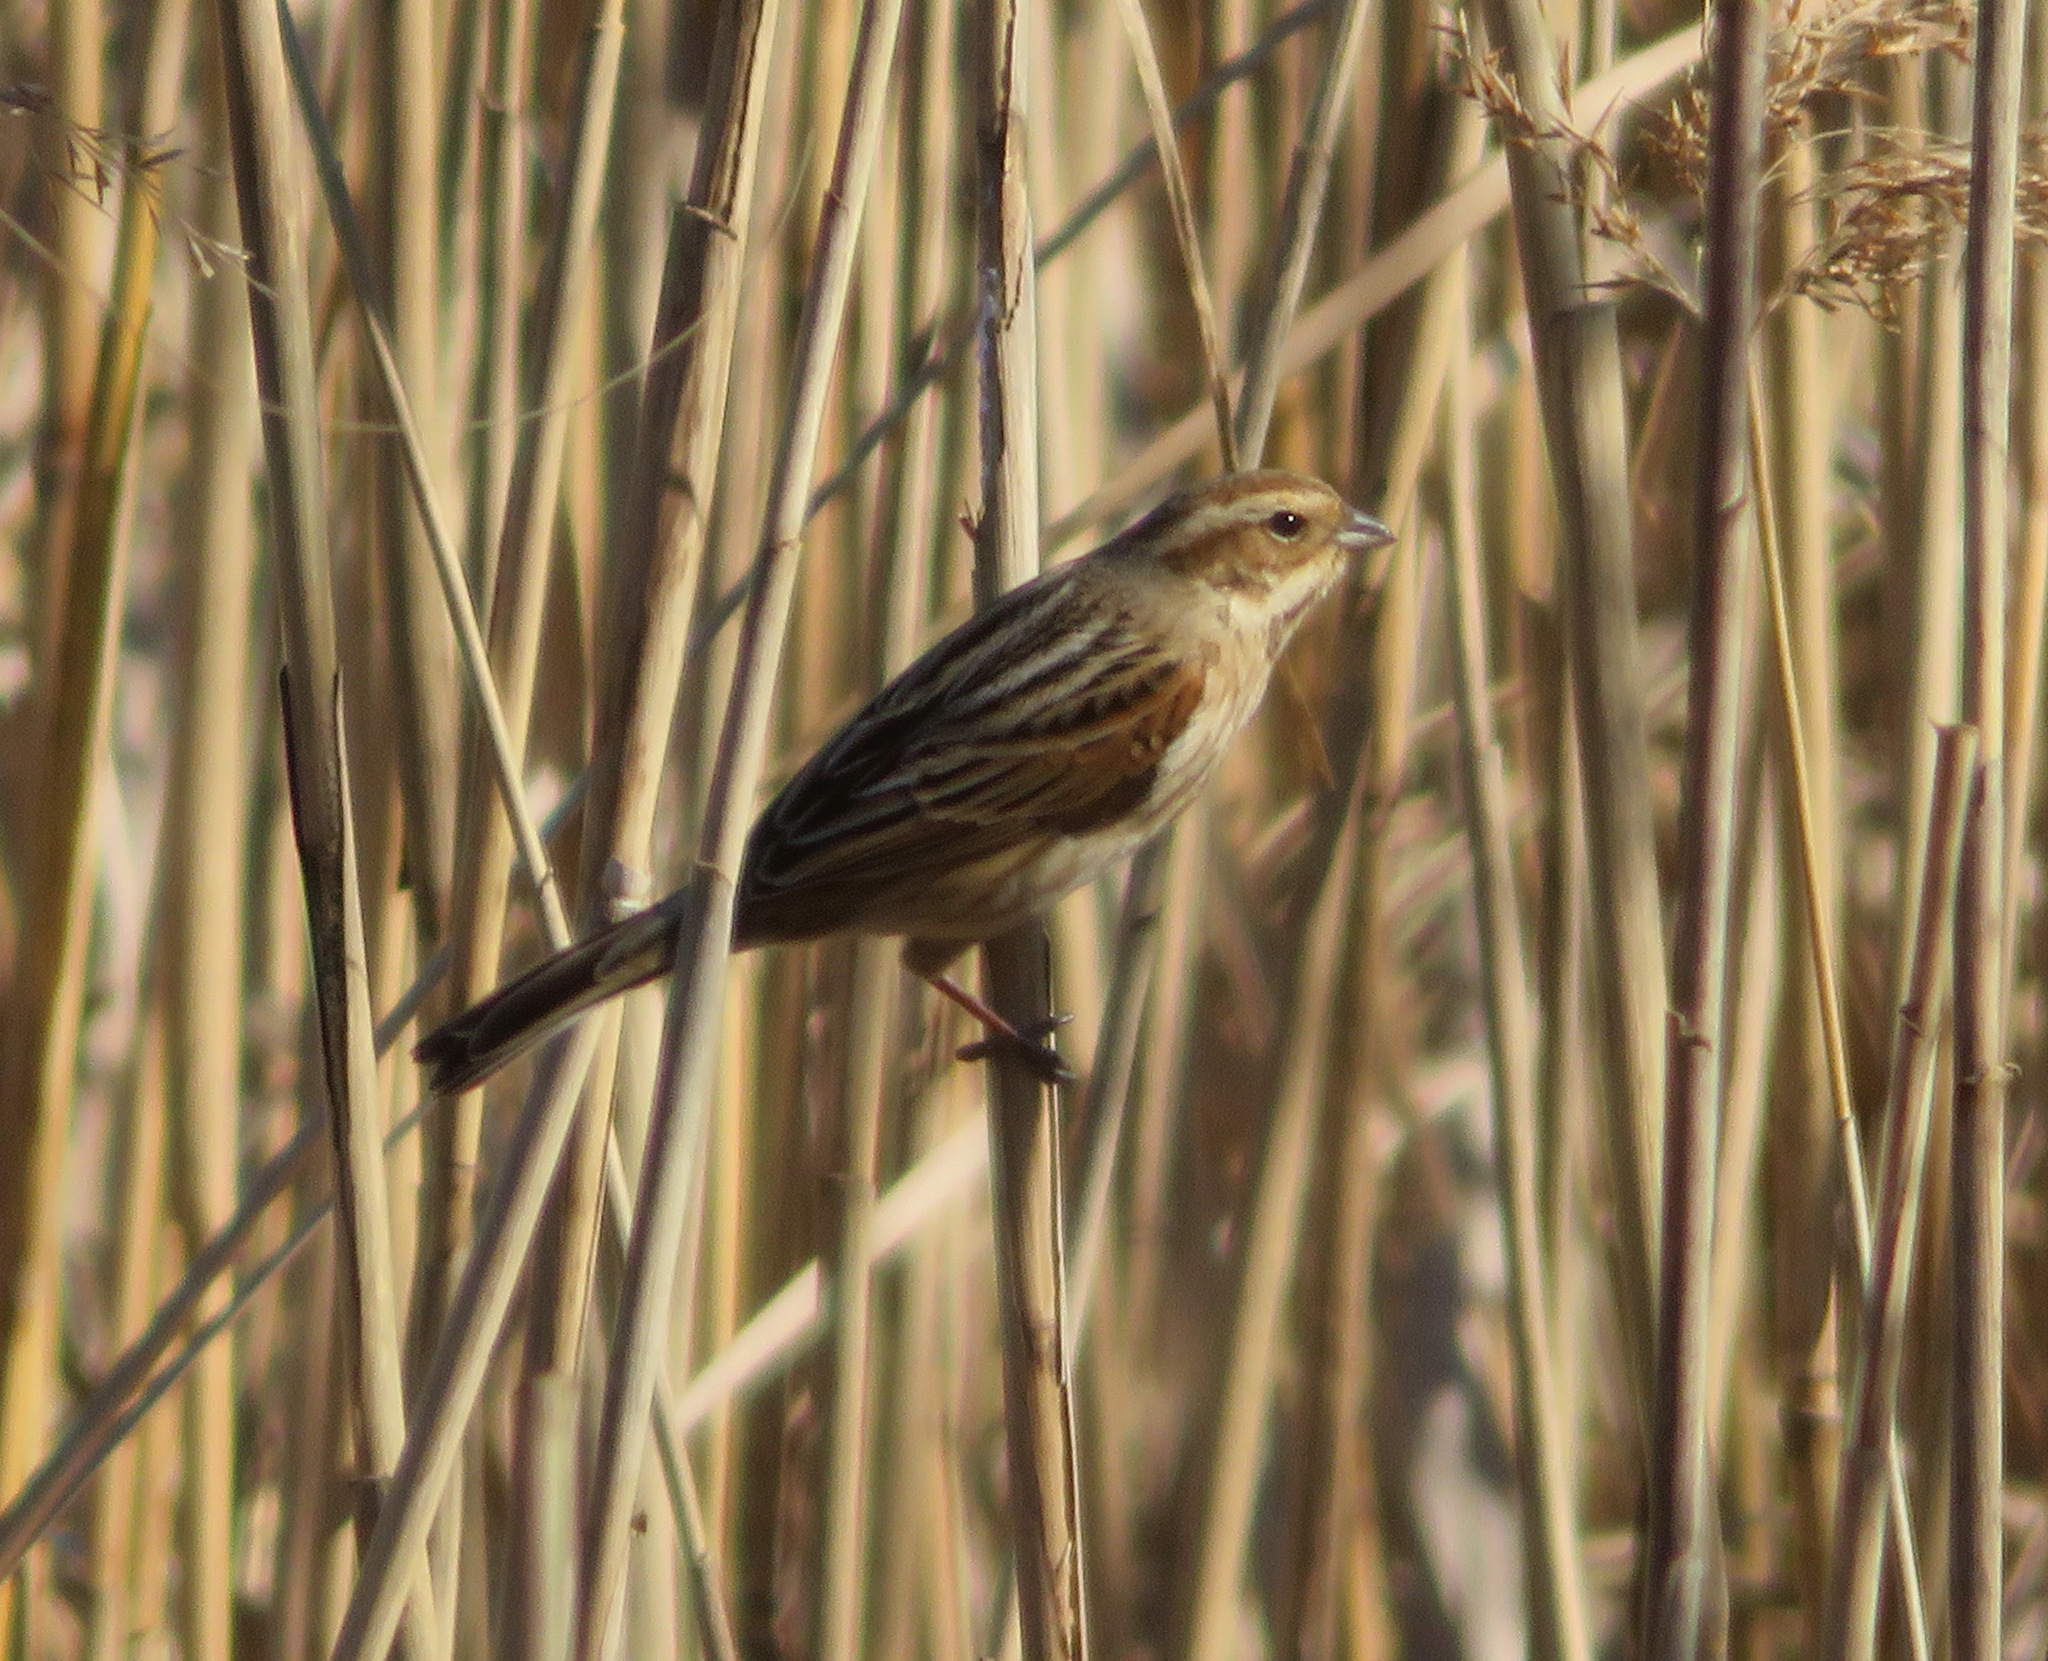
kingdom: Animalia
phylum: Chordata
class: Aves
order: Passeriformes
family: Emberizidae
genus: Emberiza
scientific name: Emberiza schoeniclus
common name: Reed bunting
